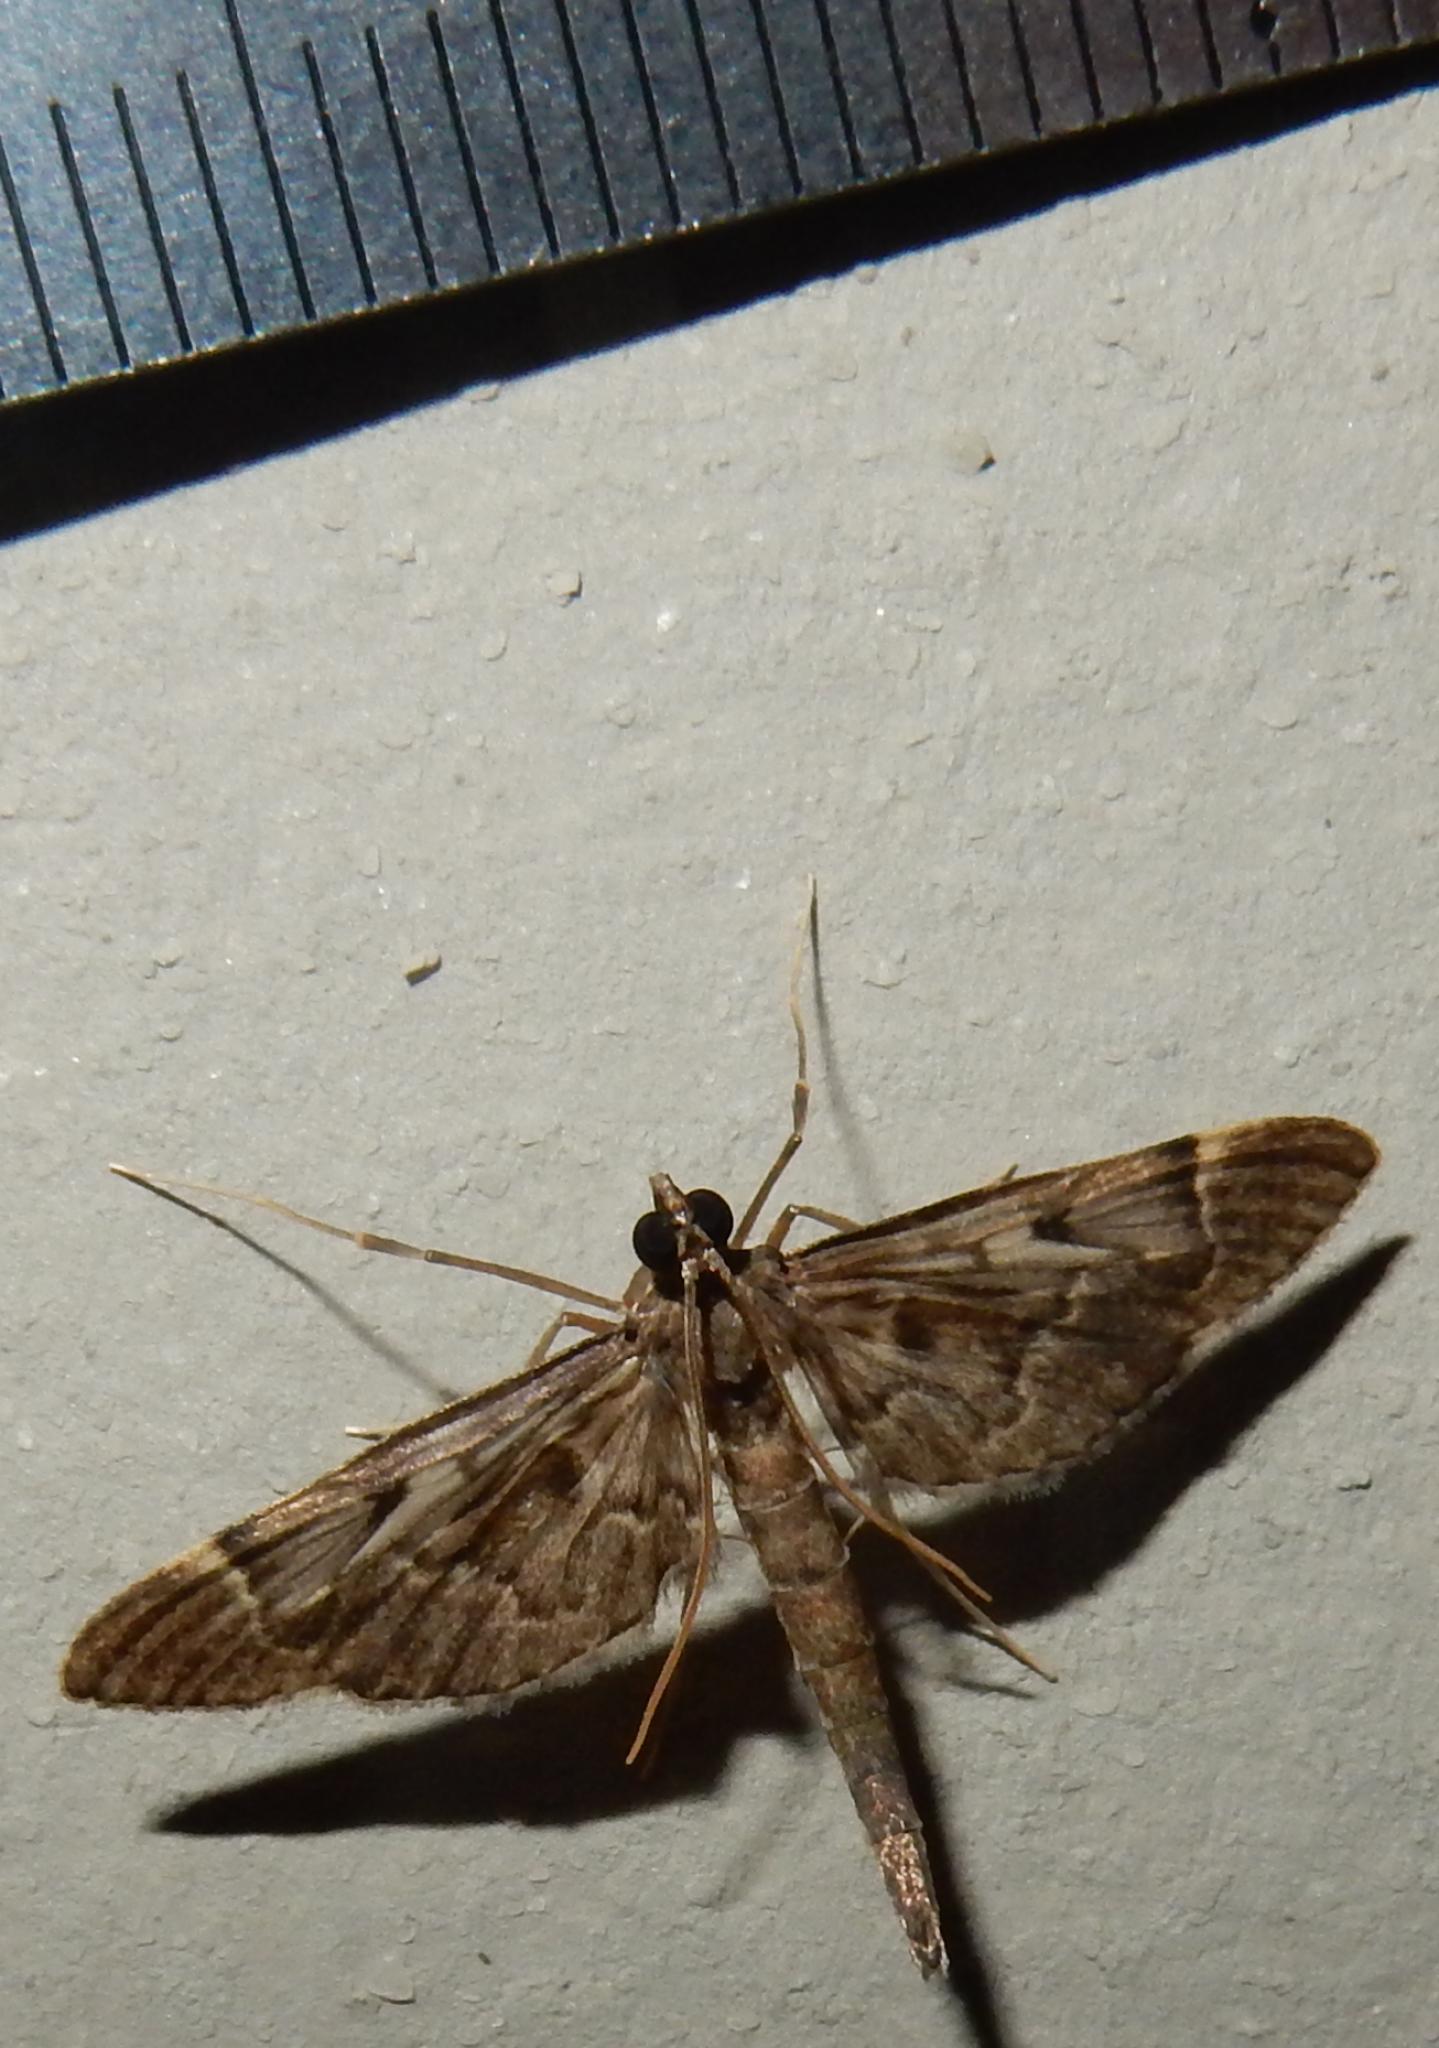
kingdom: Animalia
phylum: Arthropoda
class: Insecta
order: Lepidoptera
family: Crambidae
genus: Duponchelia
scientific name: Duponchelia lanceolalis
